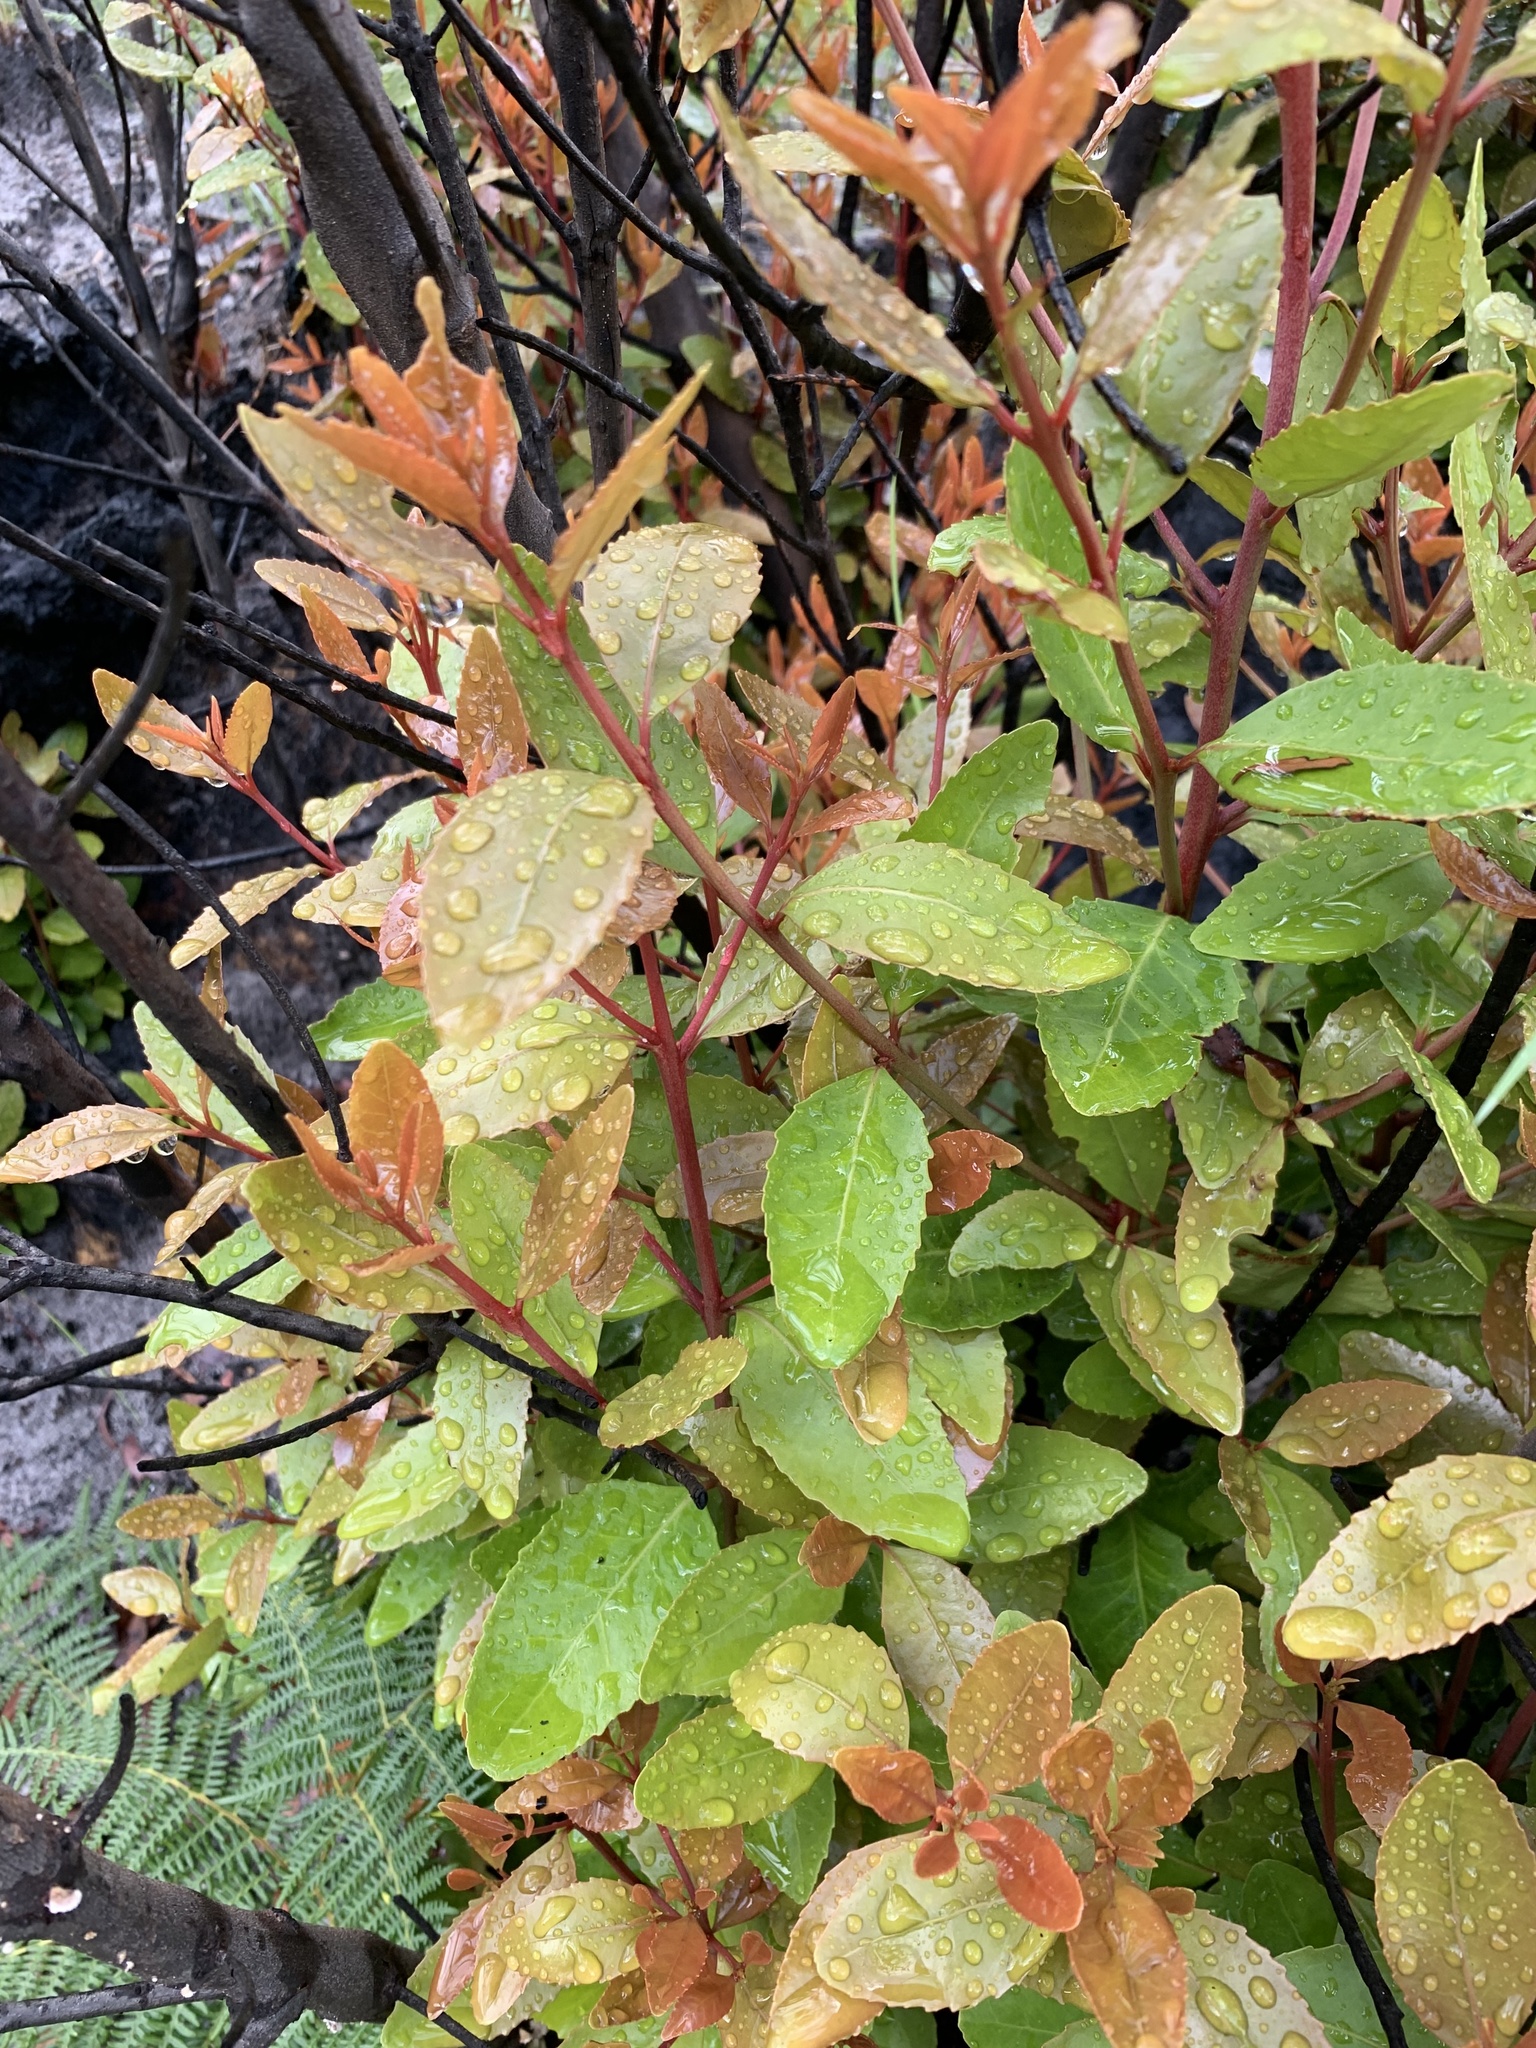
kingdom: Plantae
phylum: Tracheophyta
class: Magnoliopsida
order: Celastrales
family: Celastraceae
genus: Elaeodendron
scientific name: Elaeodendron schinoides
